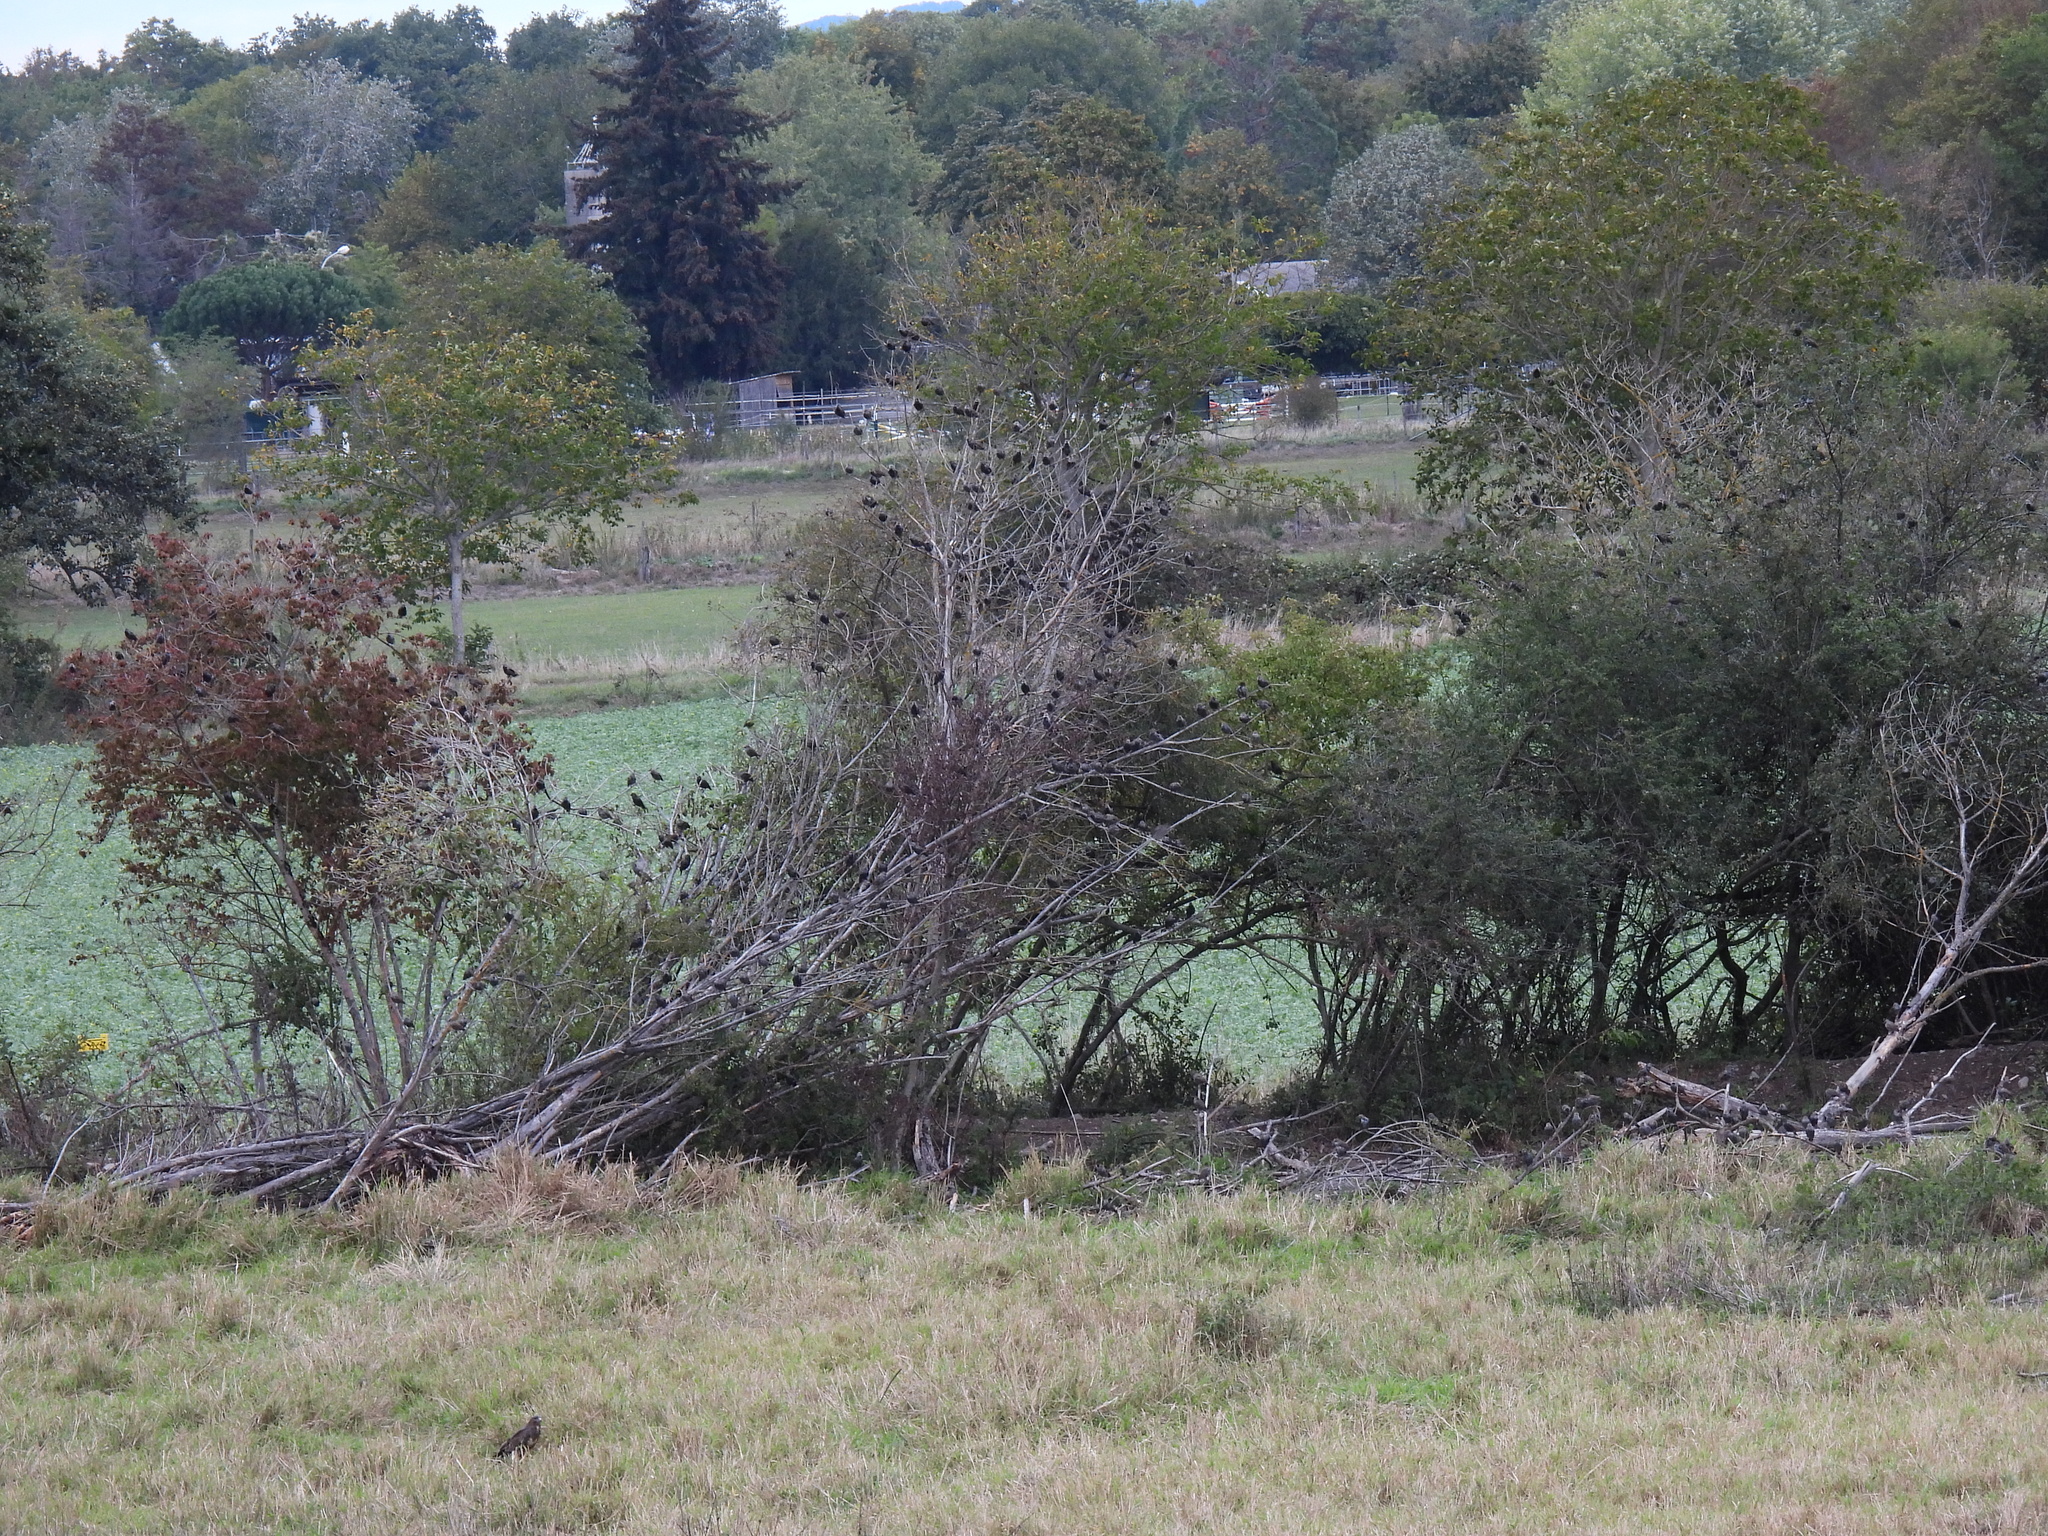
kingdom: Animalia
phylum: Chordata
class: Aves
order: Passeriformes
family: Sturnidae
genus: Sturnus
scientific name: Sturnus vulgaris
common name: Common starling
